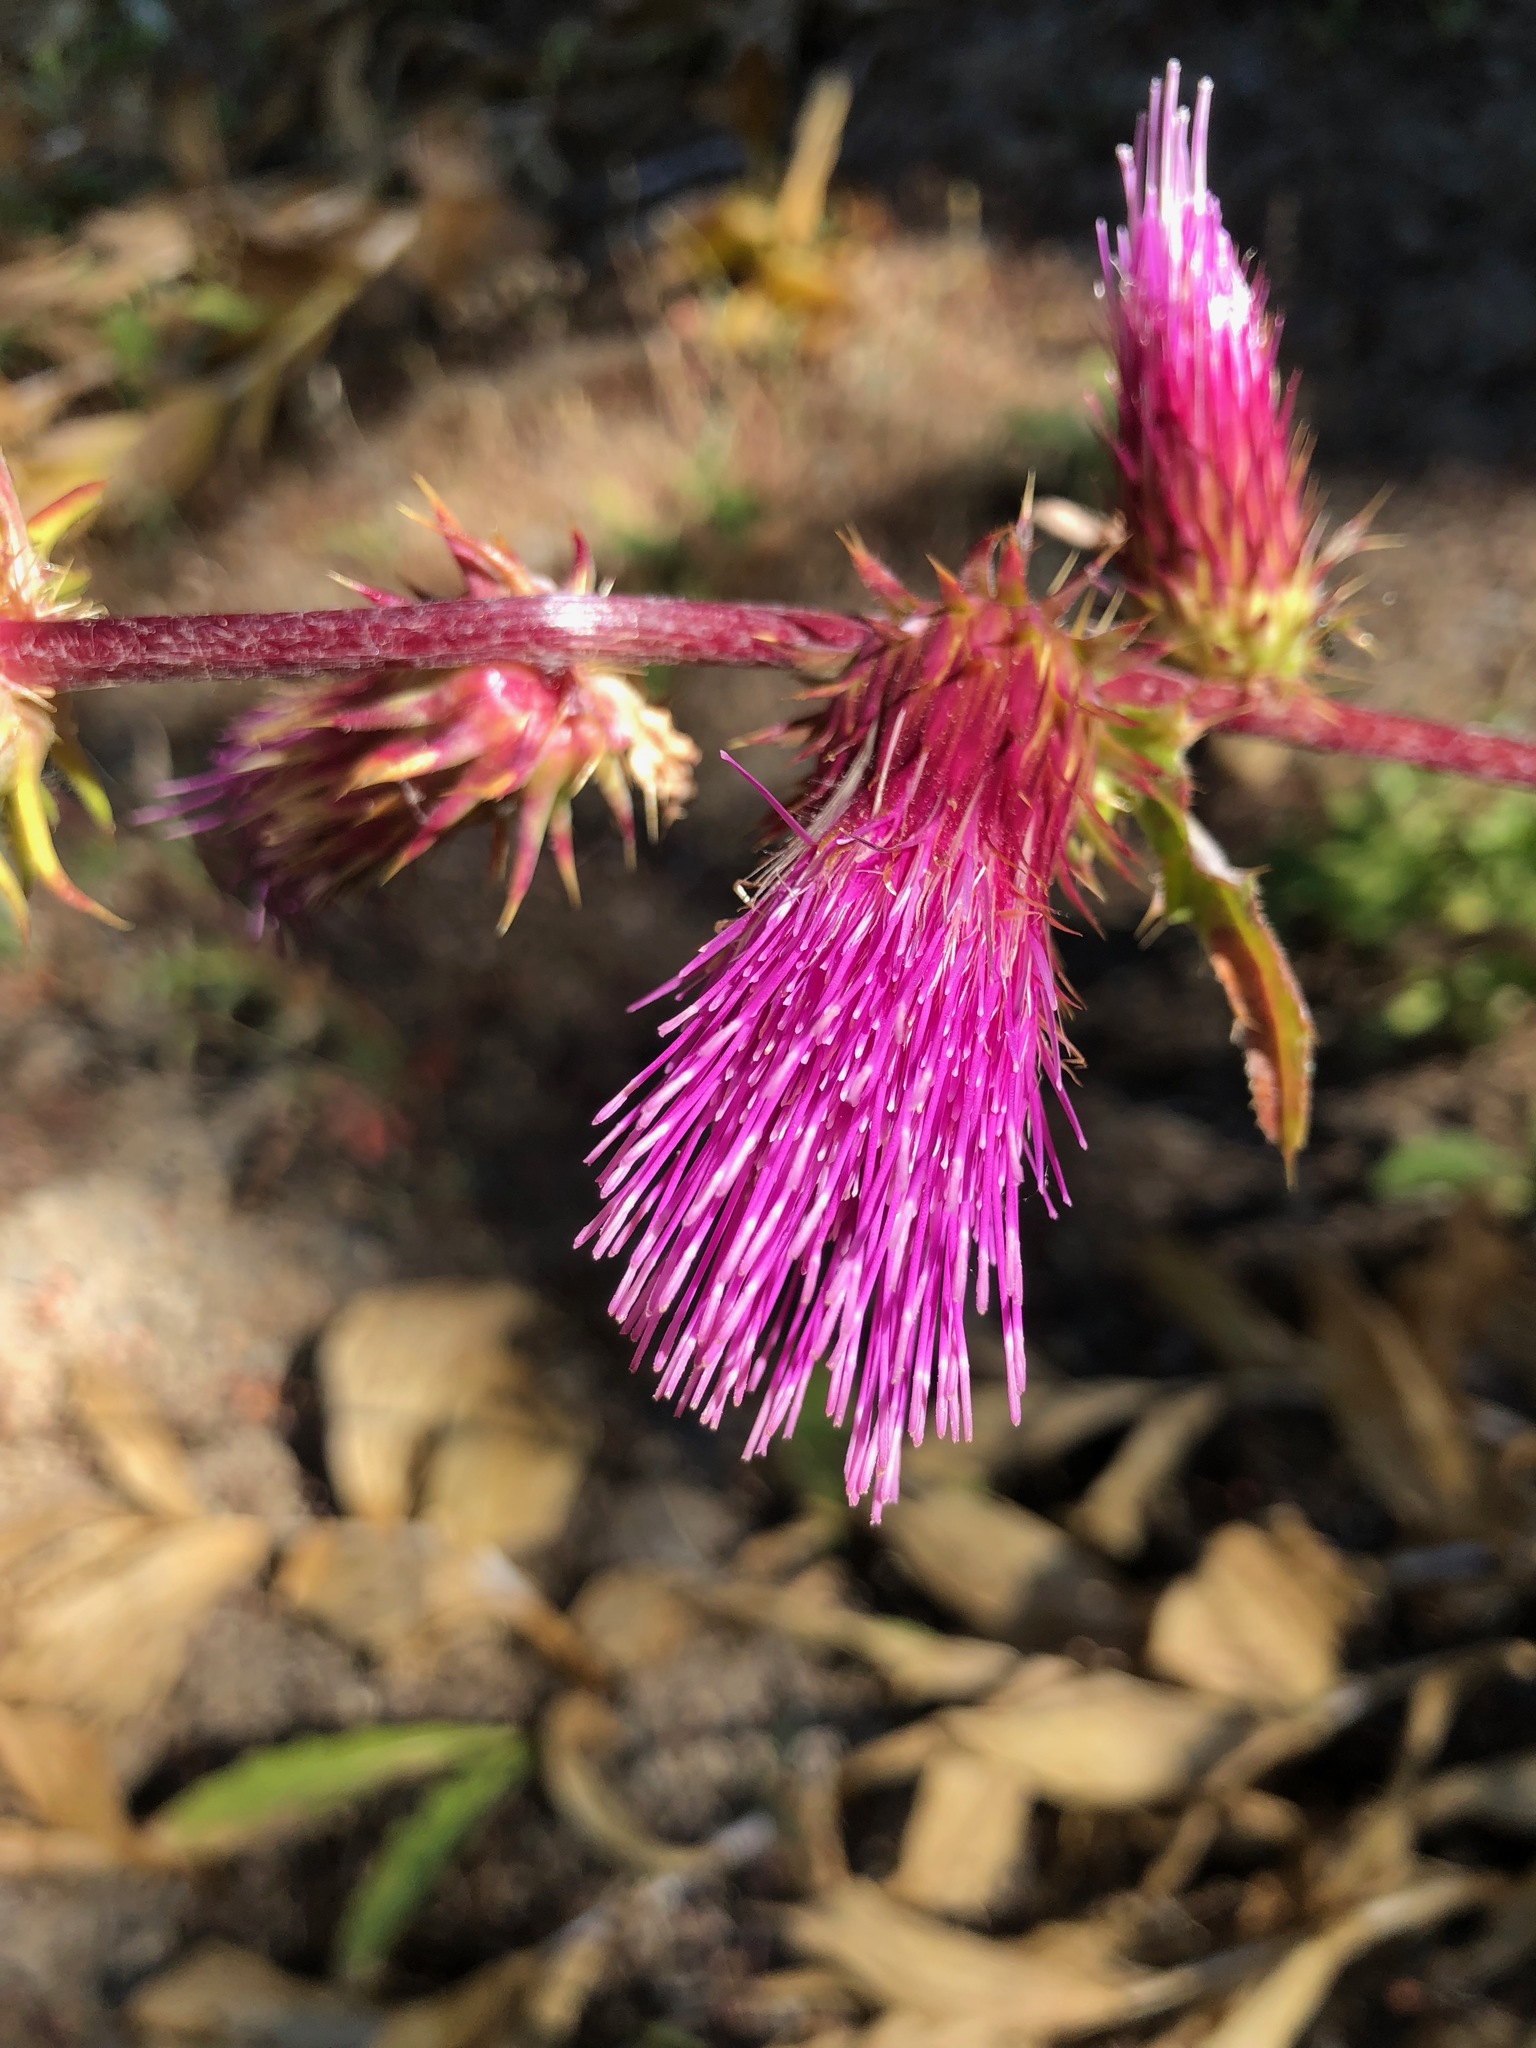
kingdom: Plantae
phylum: Tracheophyta
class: Magnoliopsida
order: Asterales
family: Asteraceae
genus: Cirsium
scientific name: Cirsium andersonii
